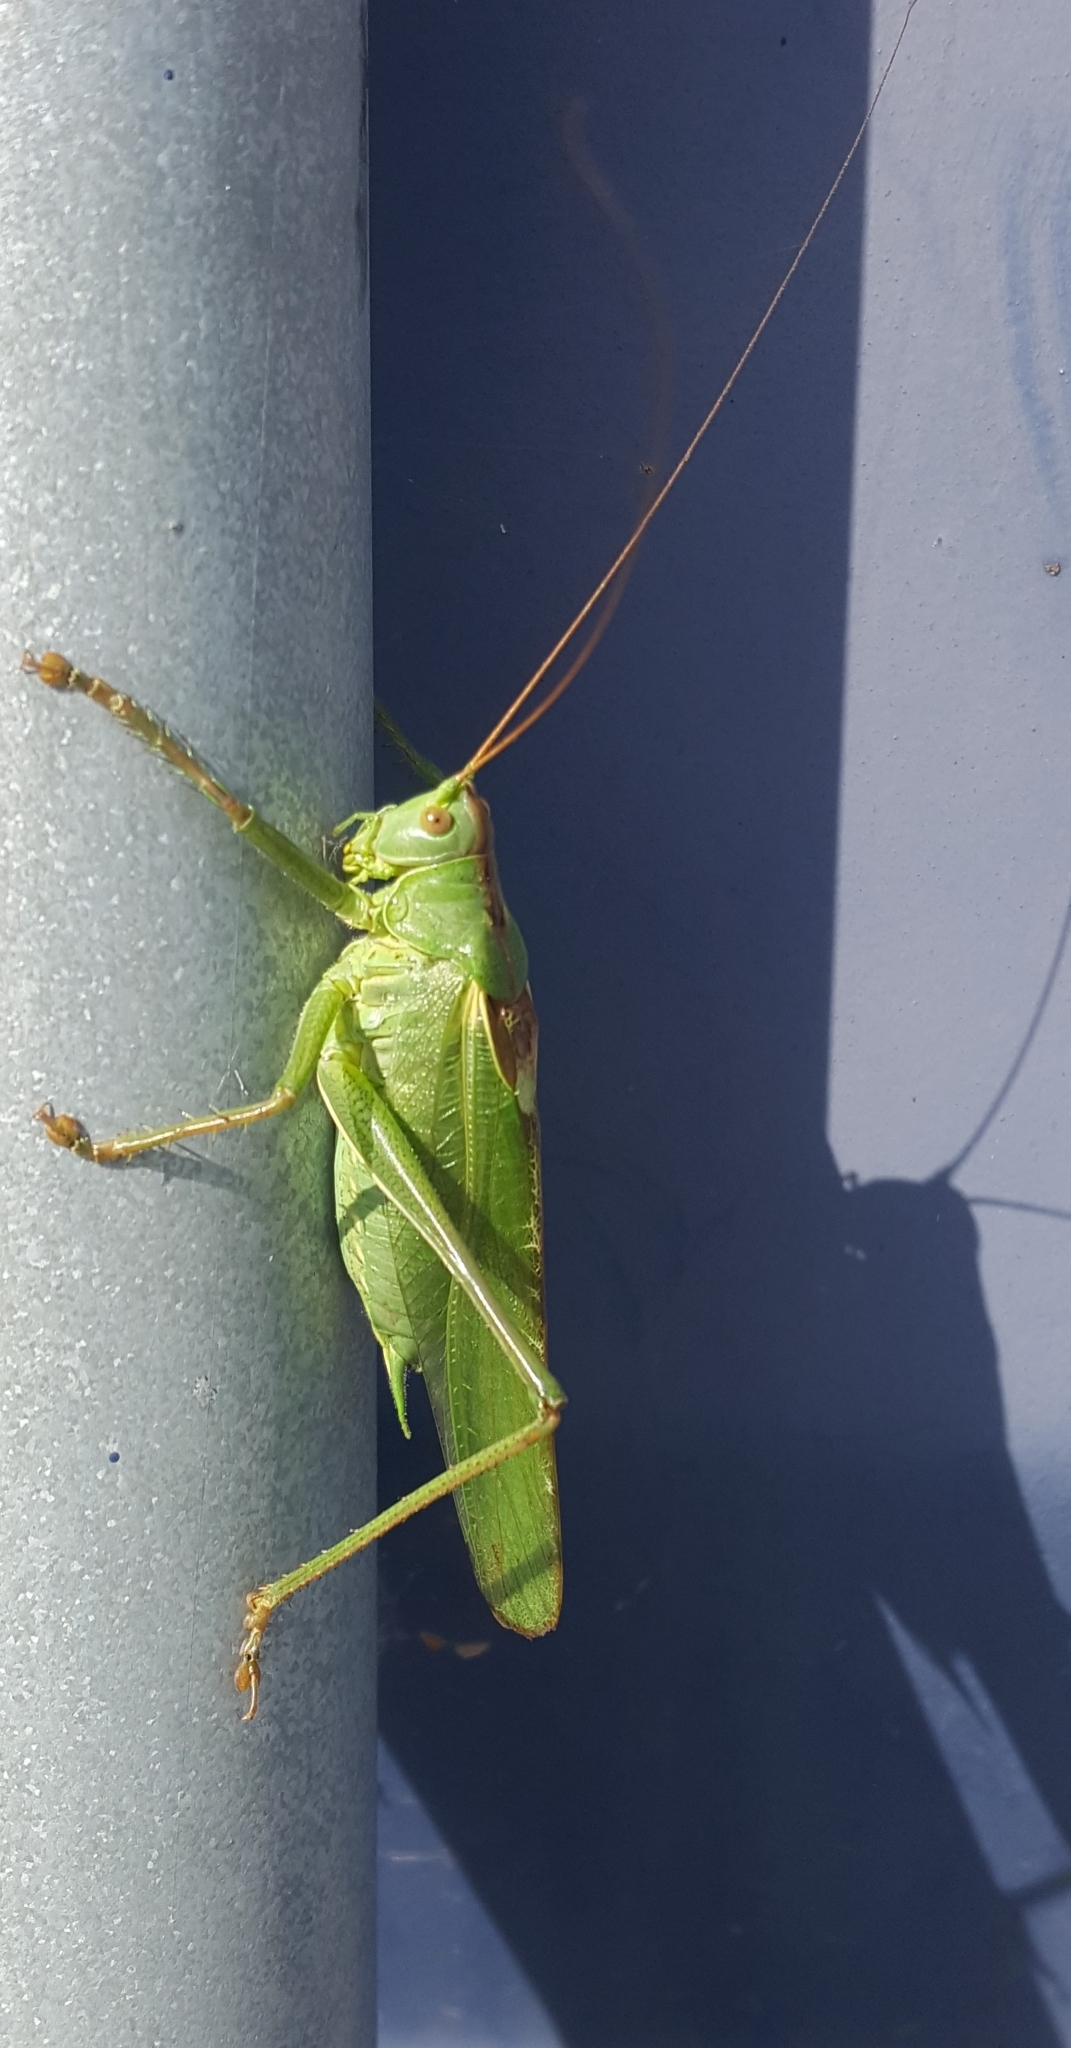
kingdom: Animalia
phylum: Arthropoda
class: Insecta
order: Orthoptera
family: Tettigoniidae
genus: Tettigonia
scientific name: Tettigonia viridissima
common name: Great green bush-cricket
